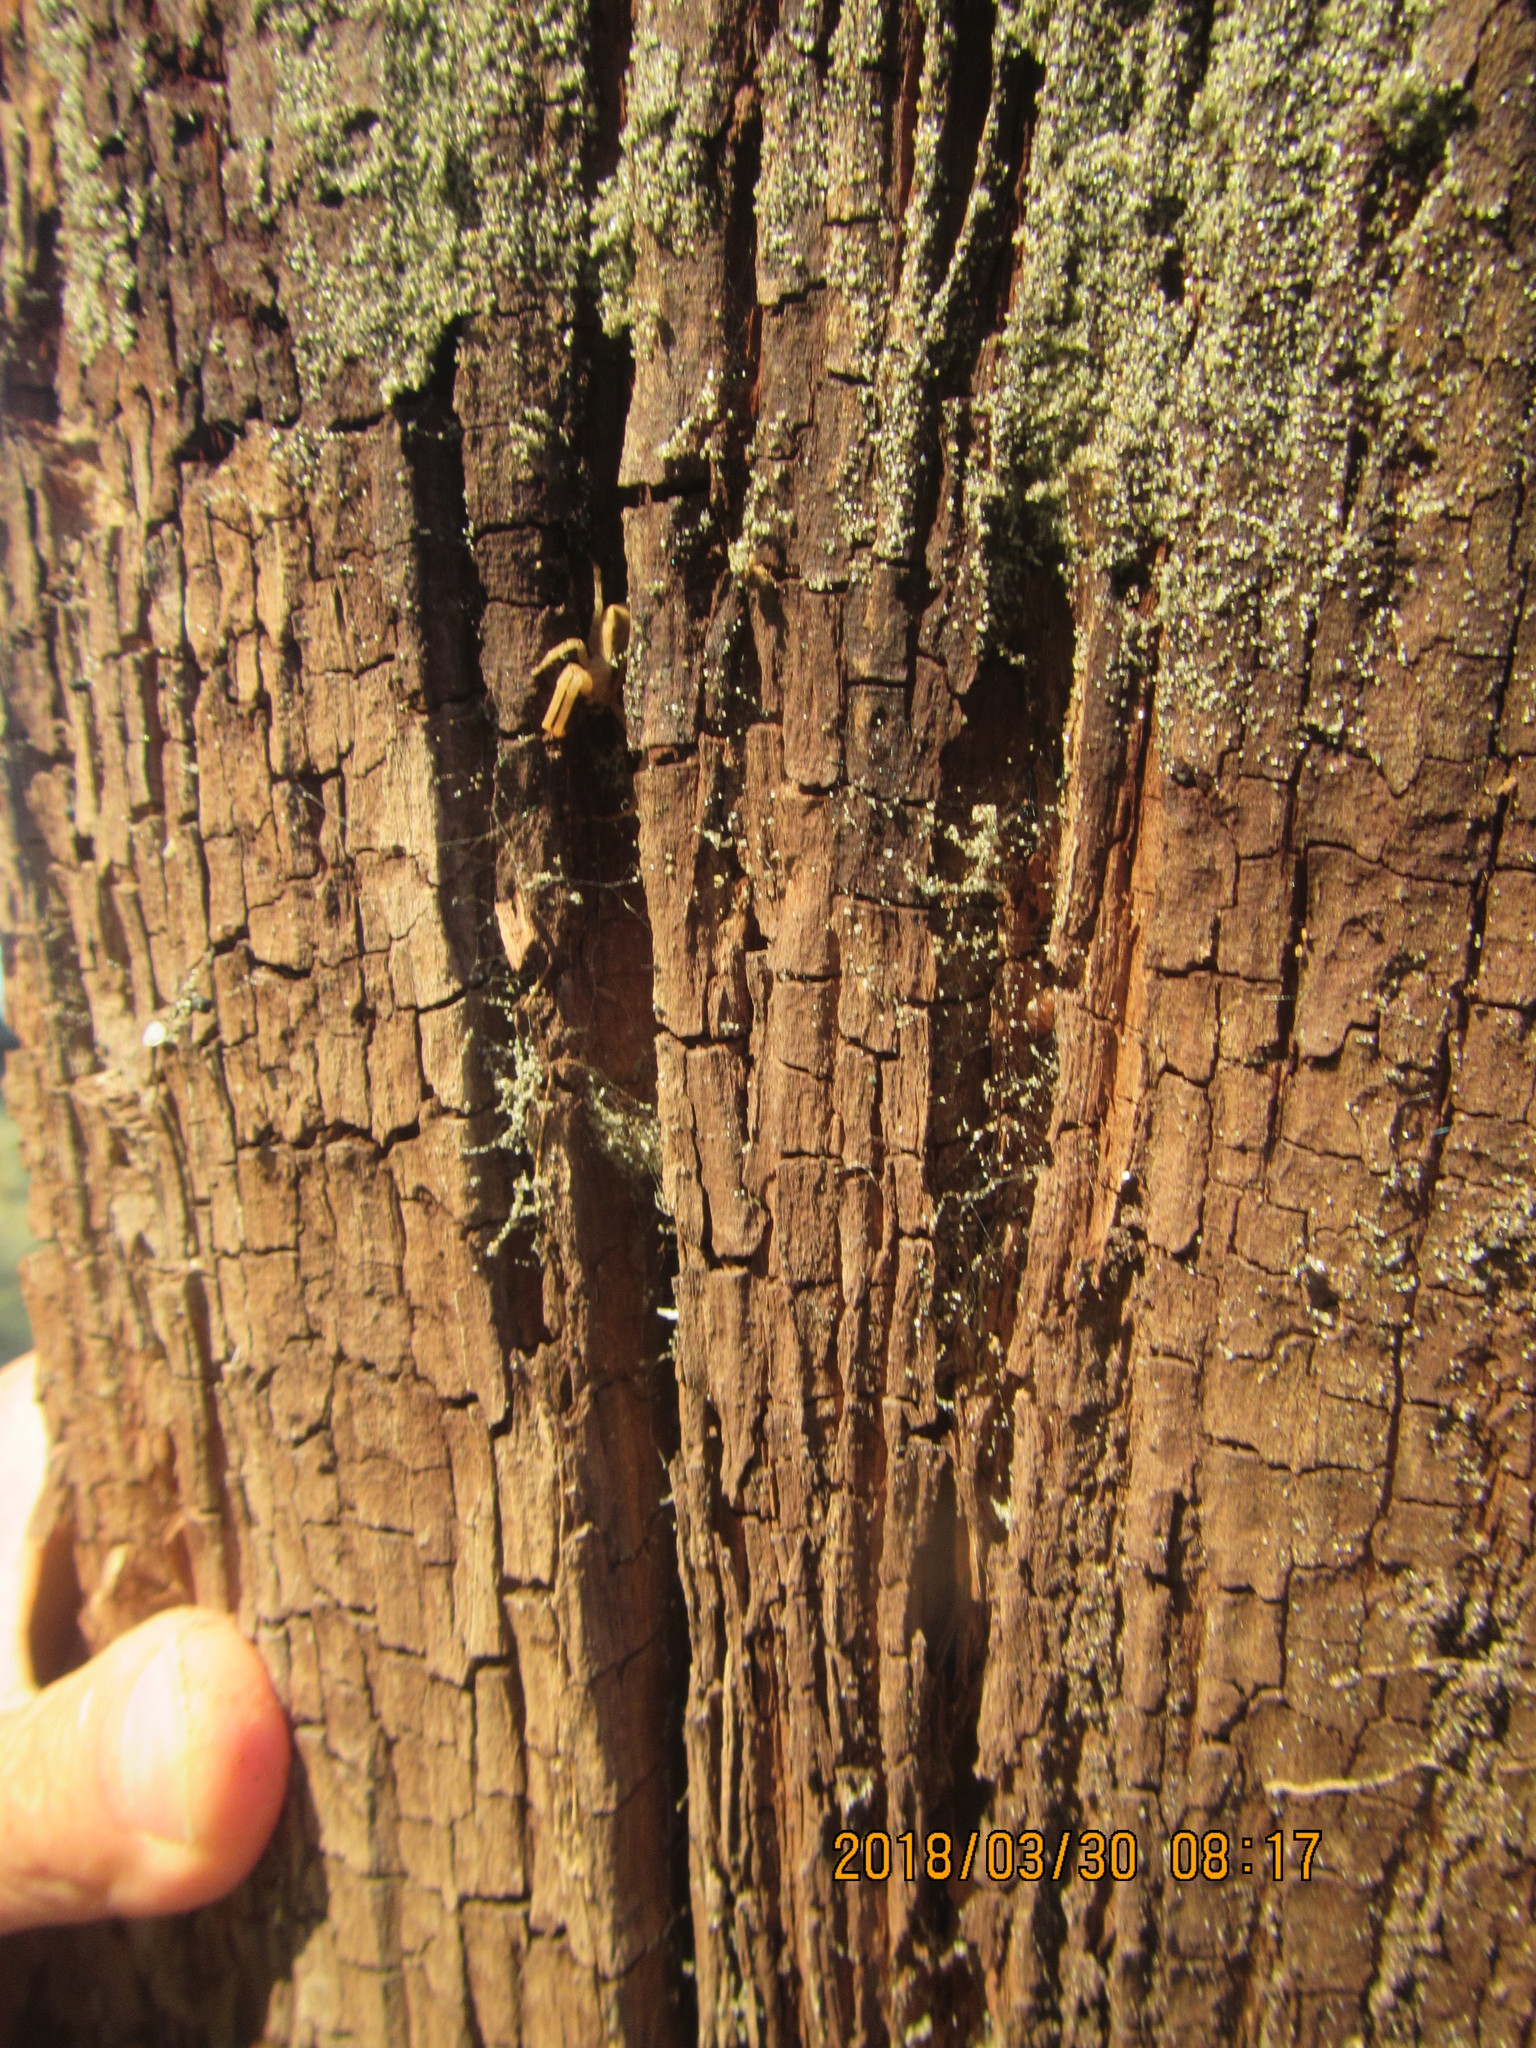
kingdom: Animalia
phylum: Arthropoda
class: Arachnida
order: Araneae
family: Thomisidae
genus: Sidymella
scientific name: Sidymella trapezia
